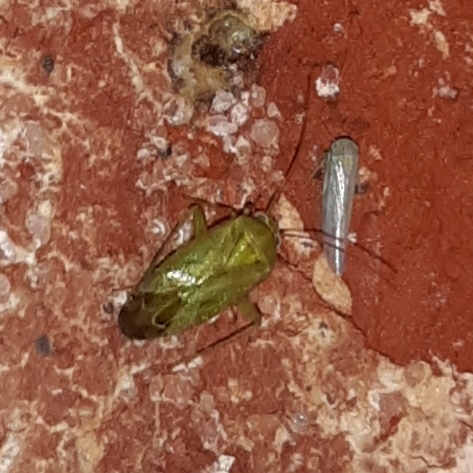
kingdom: Animalia
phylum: Arthropoda
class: Insecta
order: Hemiptera
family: Miridae
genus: Taylorilygus
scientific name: Taylorilygus apicalis
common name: Plant bug
